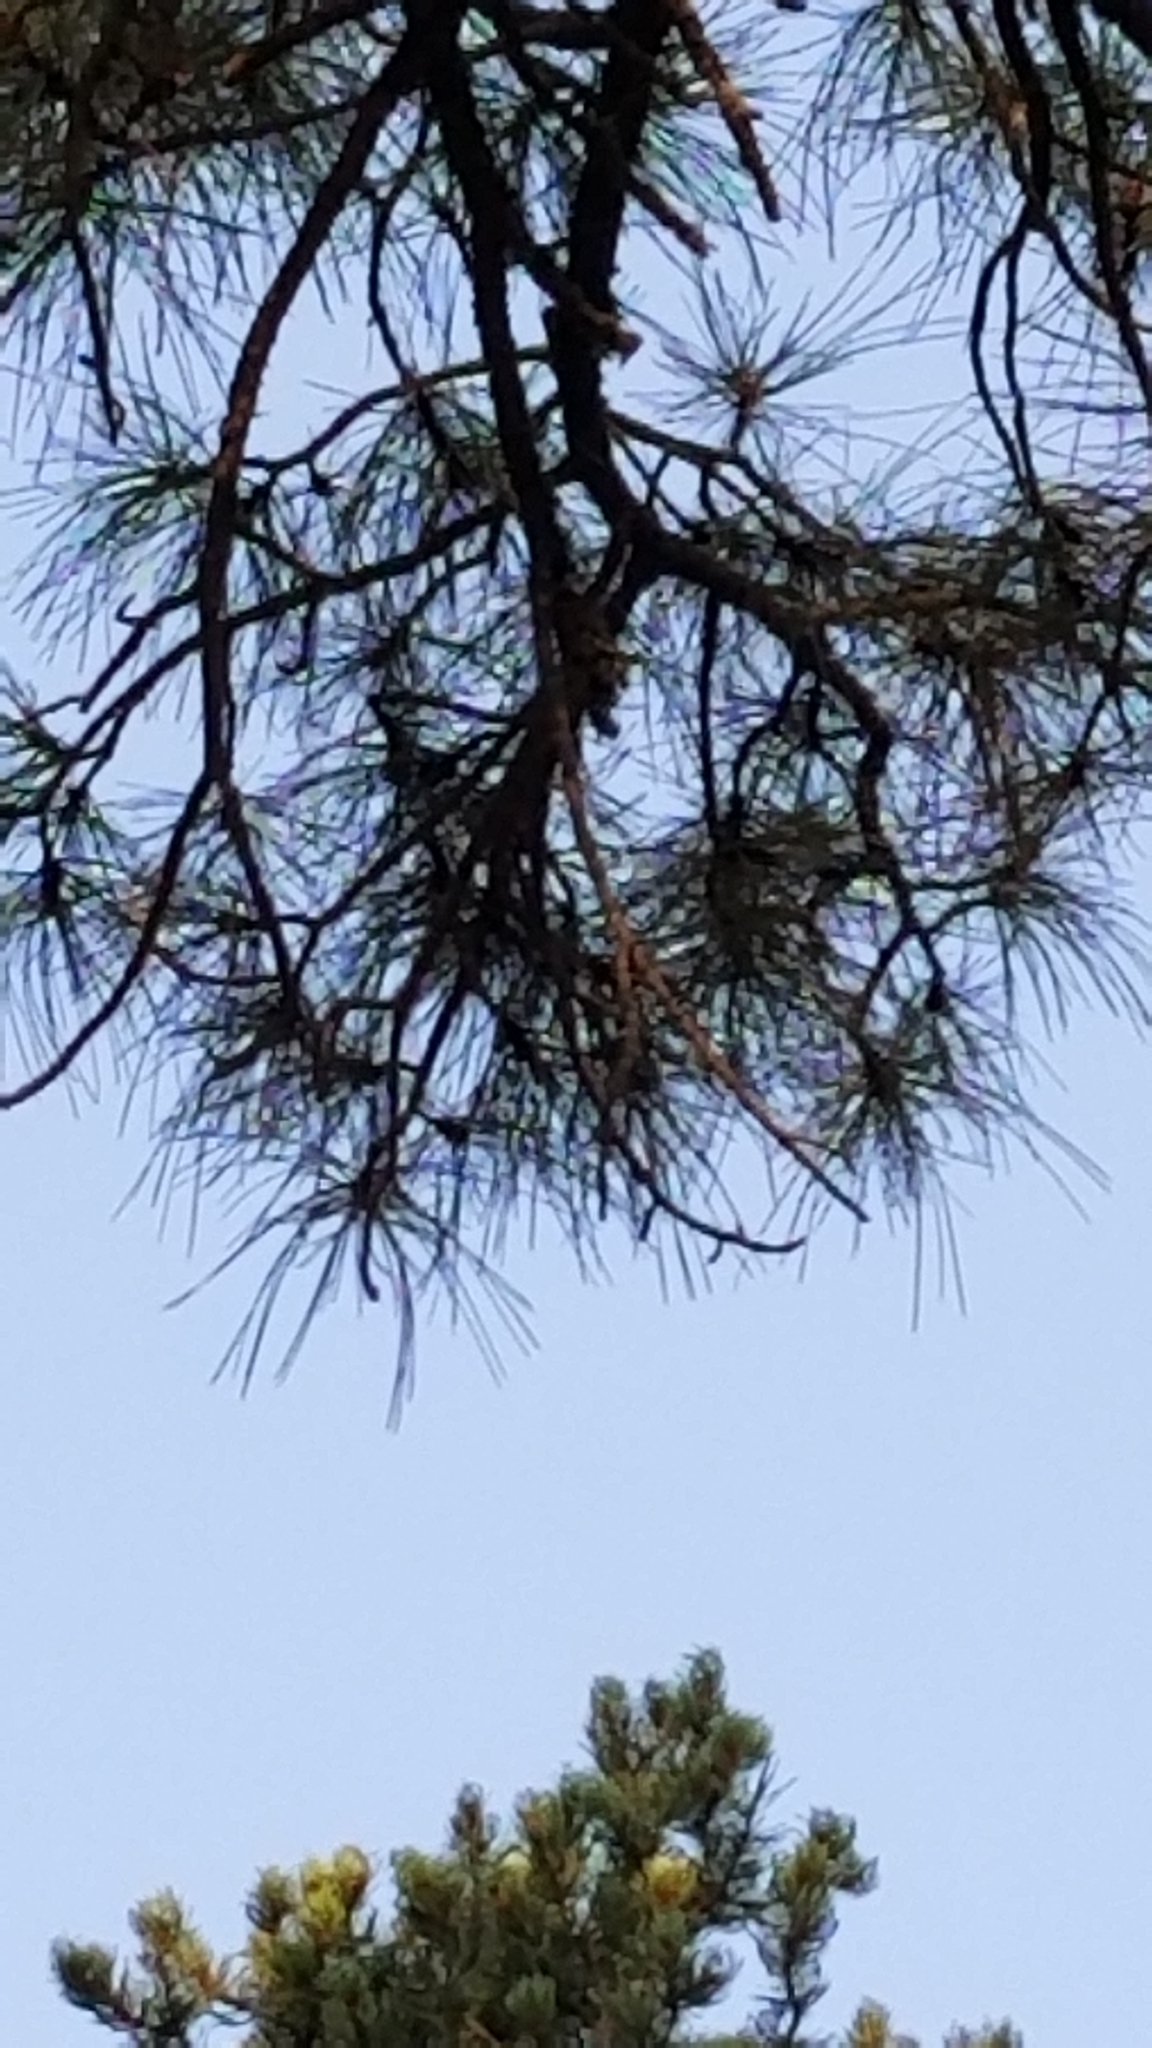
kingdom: Plantae
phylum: Tracheophyta
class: Pinopsida
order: Pinales
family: Pinaceae
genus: Pinus
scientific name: Pinus ponderosa
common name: Western yellow-pine
